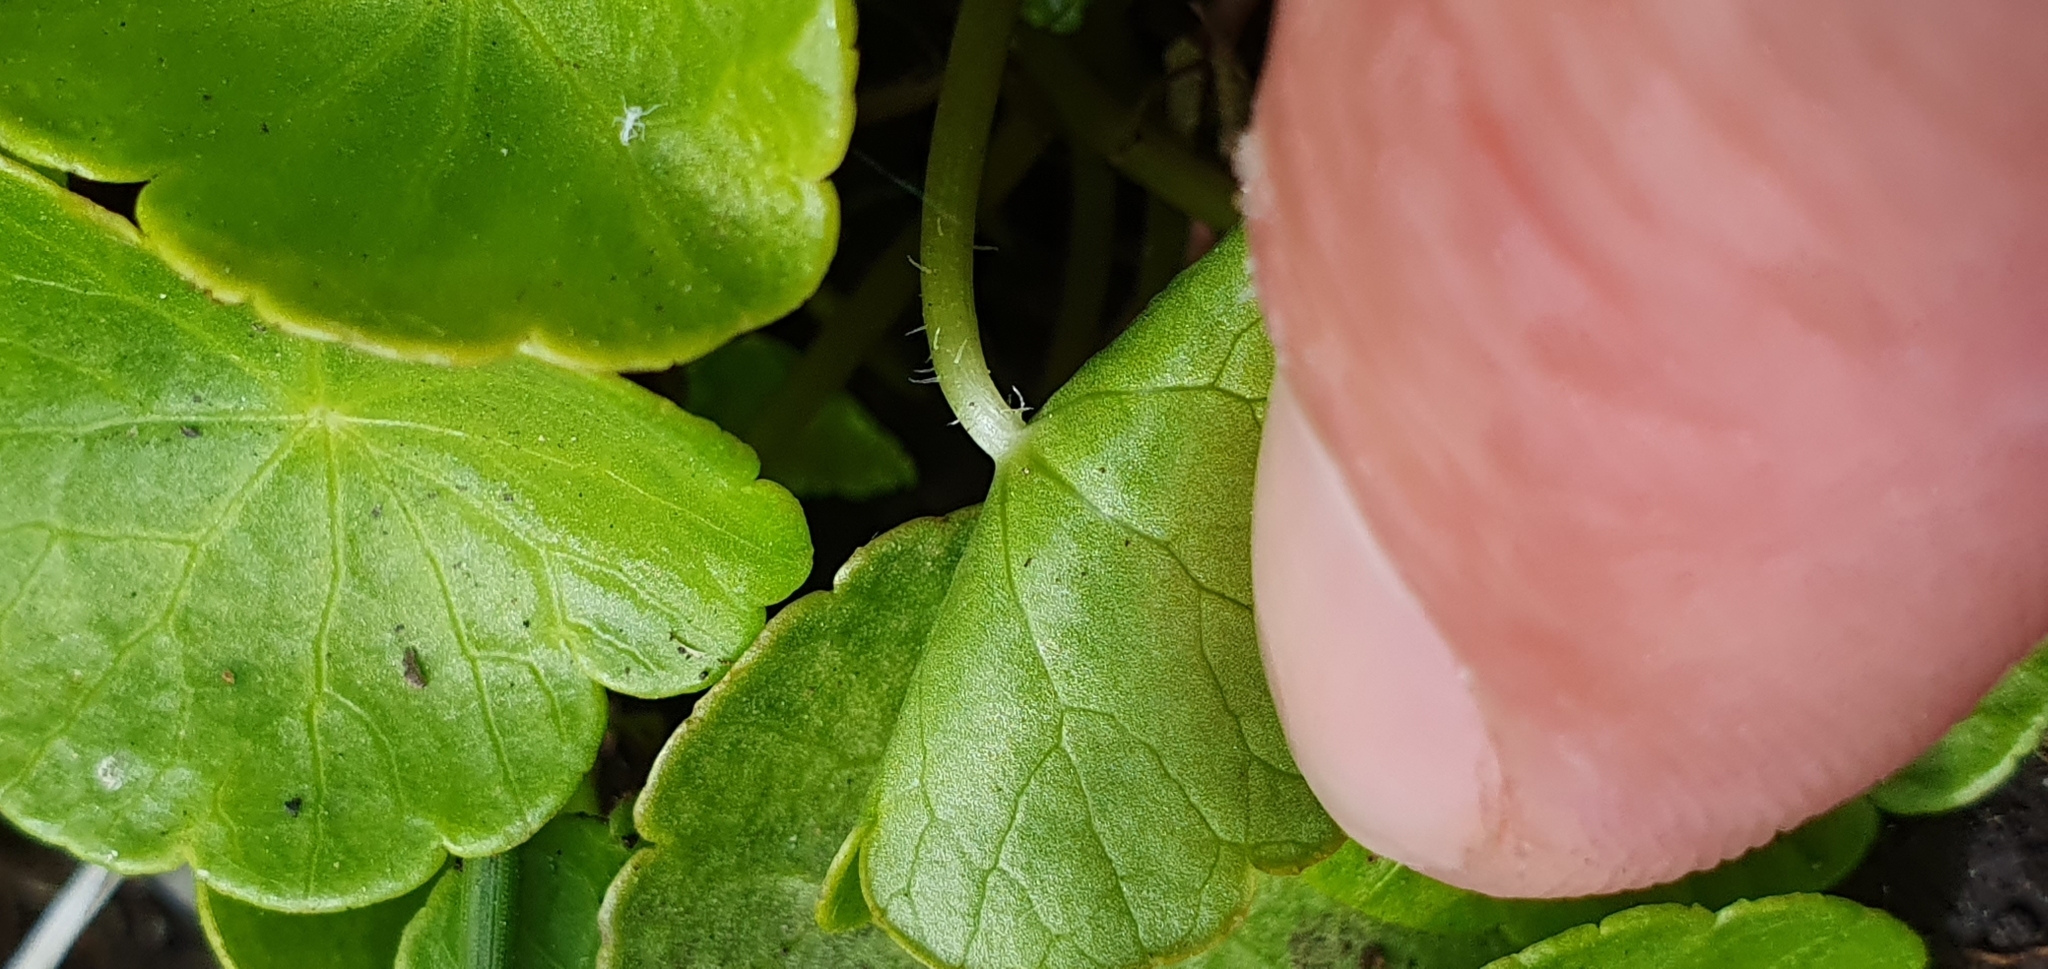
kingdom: Plantae
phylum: Tracheophyta
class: Magnoliopsida
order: Apiales
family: Araliaceae
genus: Hydrocotyle
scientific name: Hydrocotyle vulgaris
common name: Marsh pennywort
